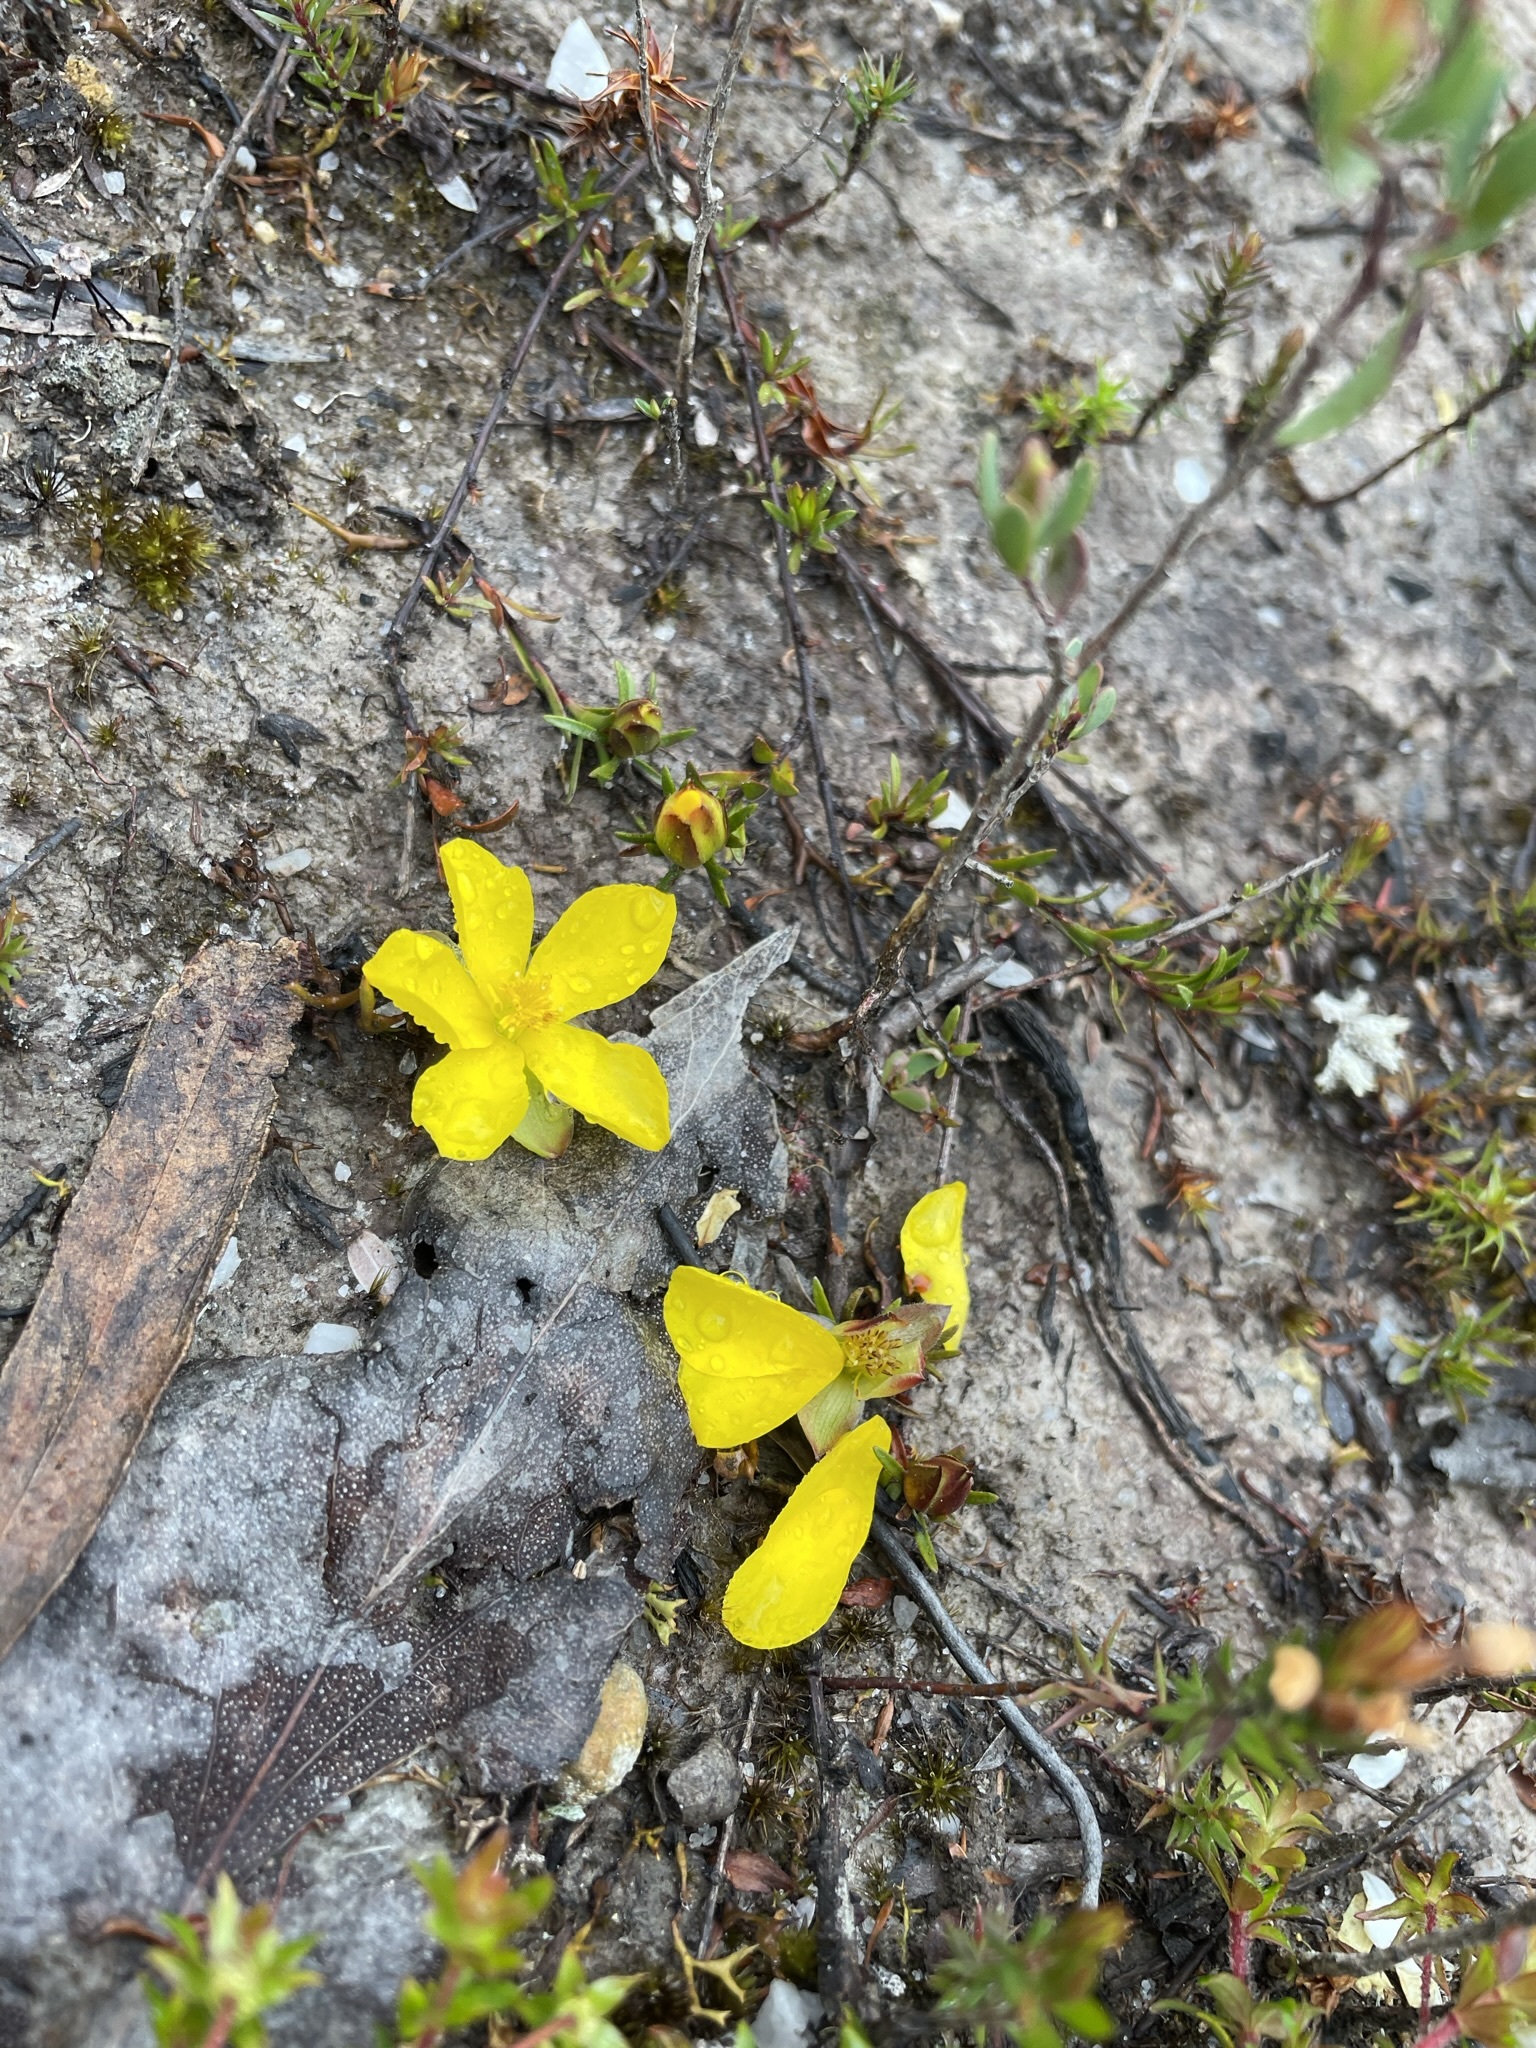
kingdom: Plantae
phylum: Tracheophyta
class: Magnoliopsida
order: Dilleniales
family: Dilleniaceae
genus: Hibbertia
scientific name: Hibbertia procumbens
